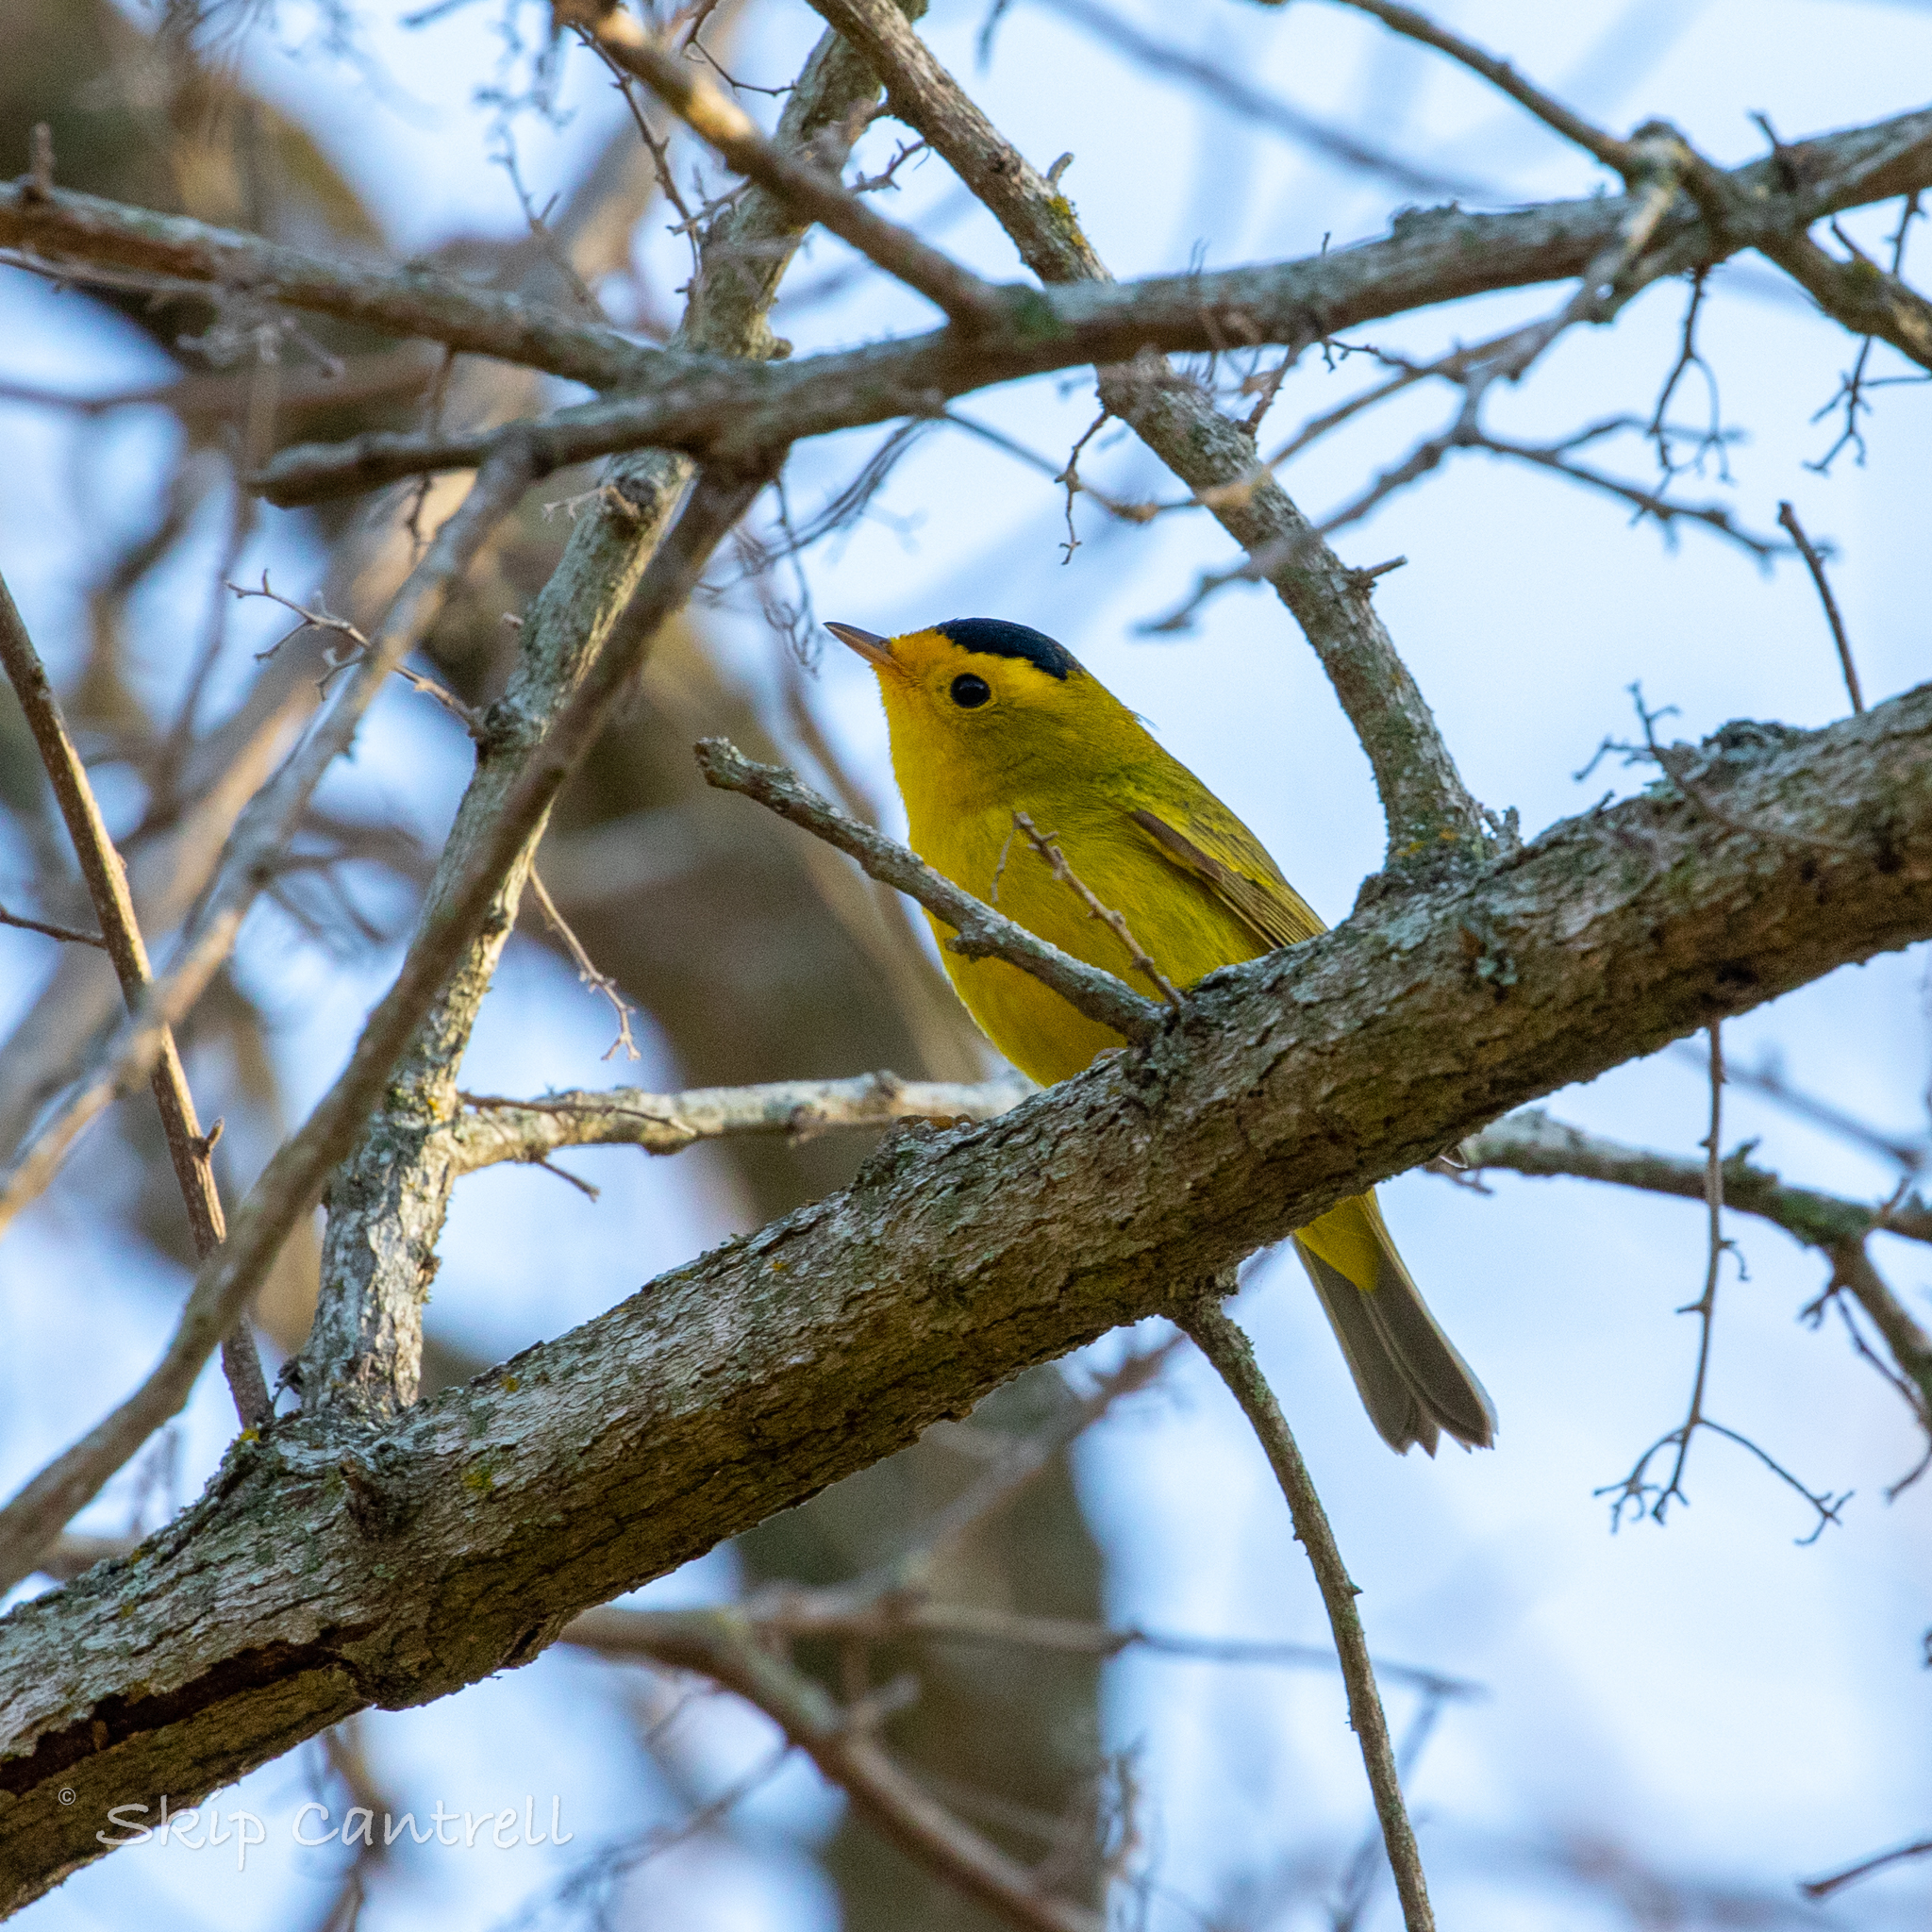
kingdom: Animalia
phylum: Chordata
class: Aves
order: Passeriformes
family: Parulidae
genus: Cardellina
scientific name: Cardellina pusilla
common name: Wilson's warbler
